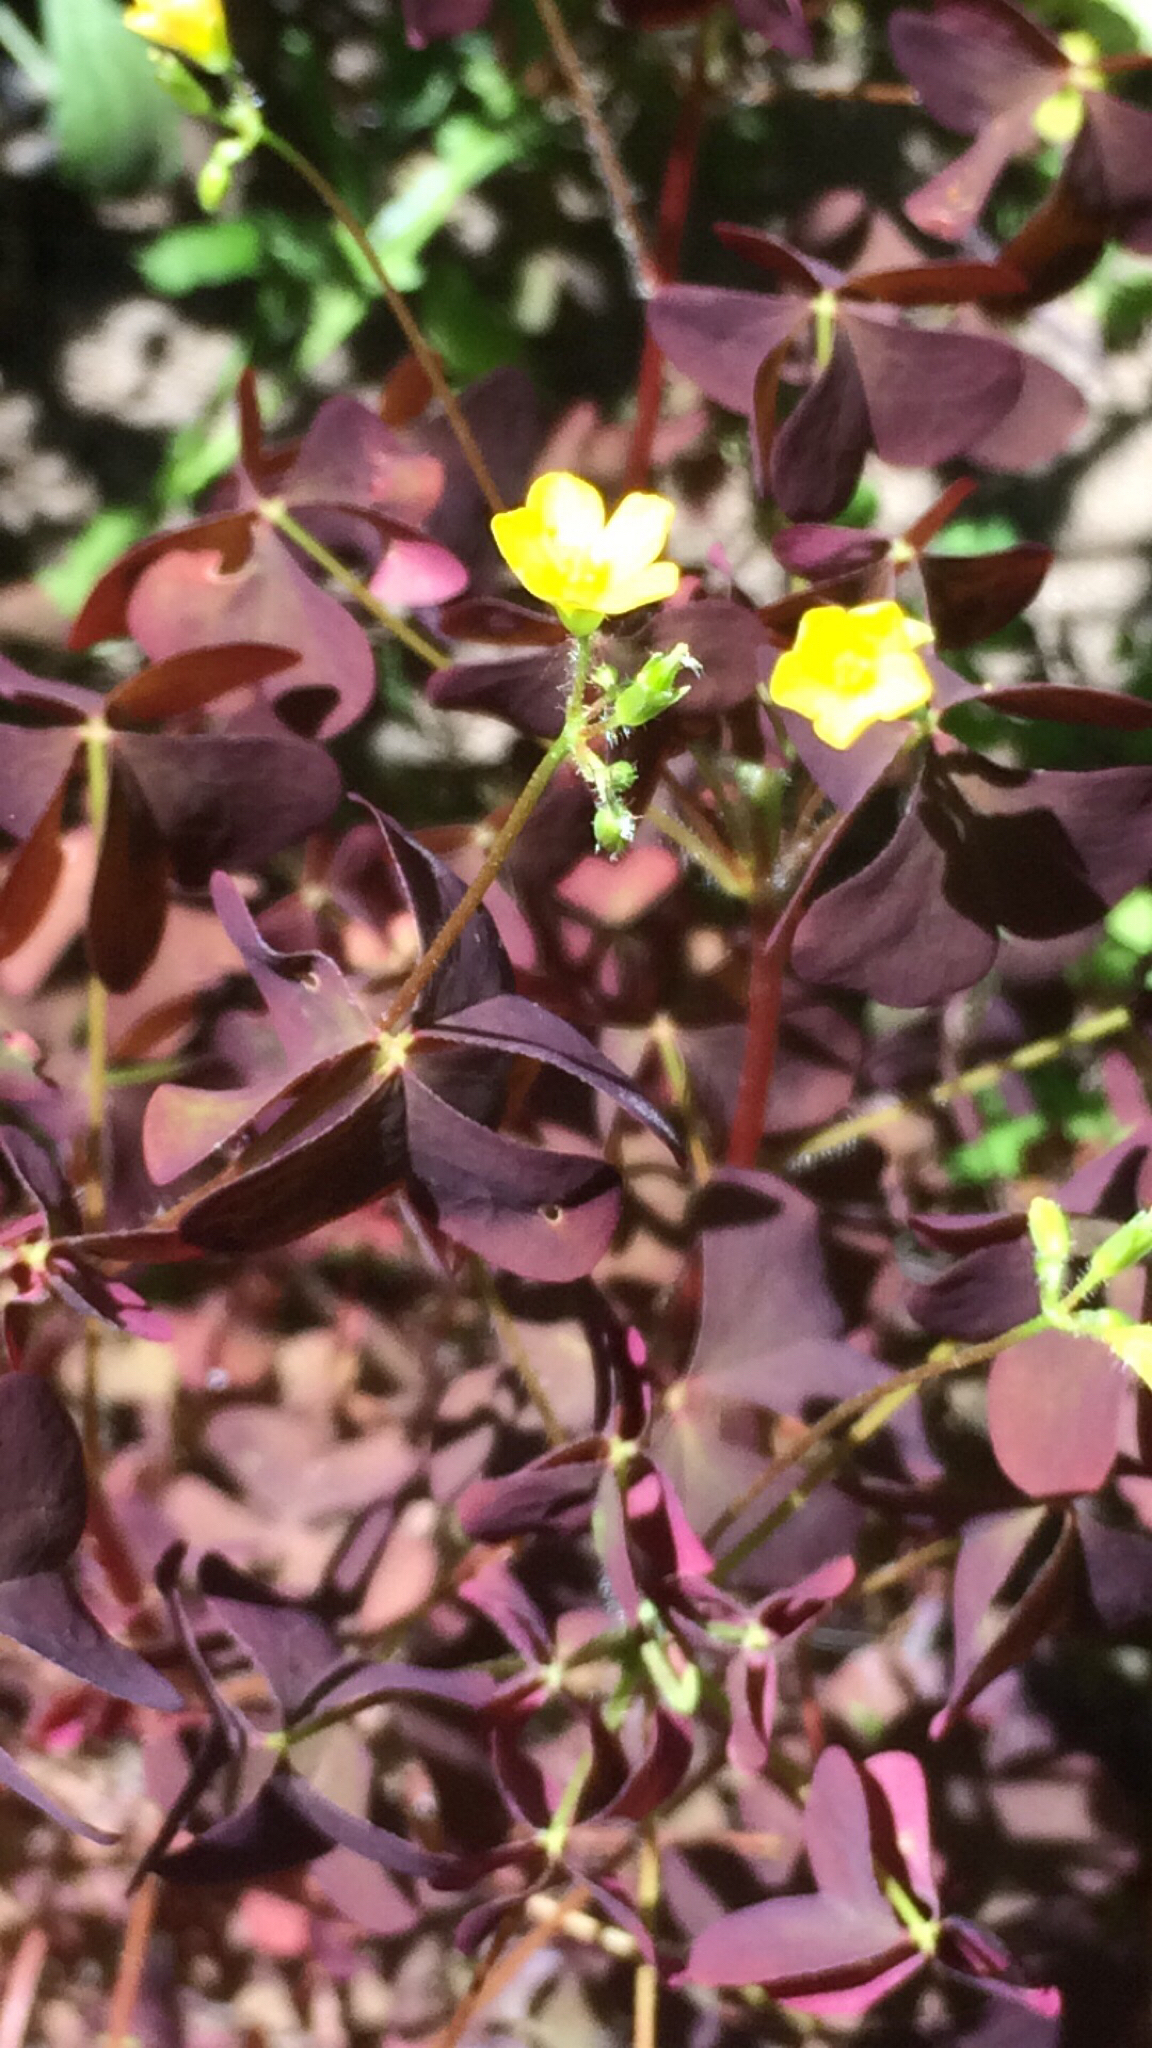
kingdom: Plantae
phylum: Tracheophyta
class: Magnoliopsida
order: Oxalidales
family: Oxalidaceae
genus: Oxalis
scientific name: Oxalis stricta
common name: Upright yellow-sorrel
